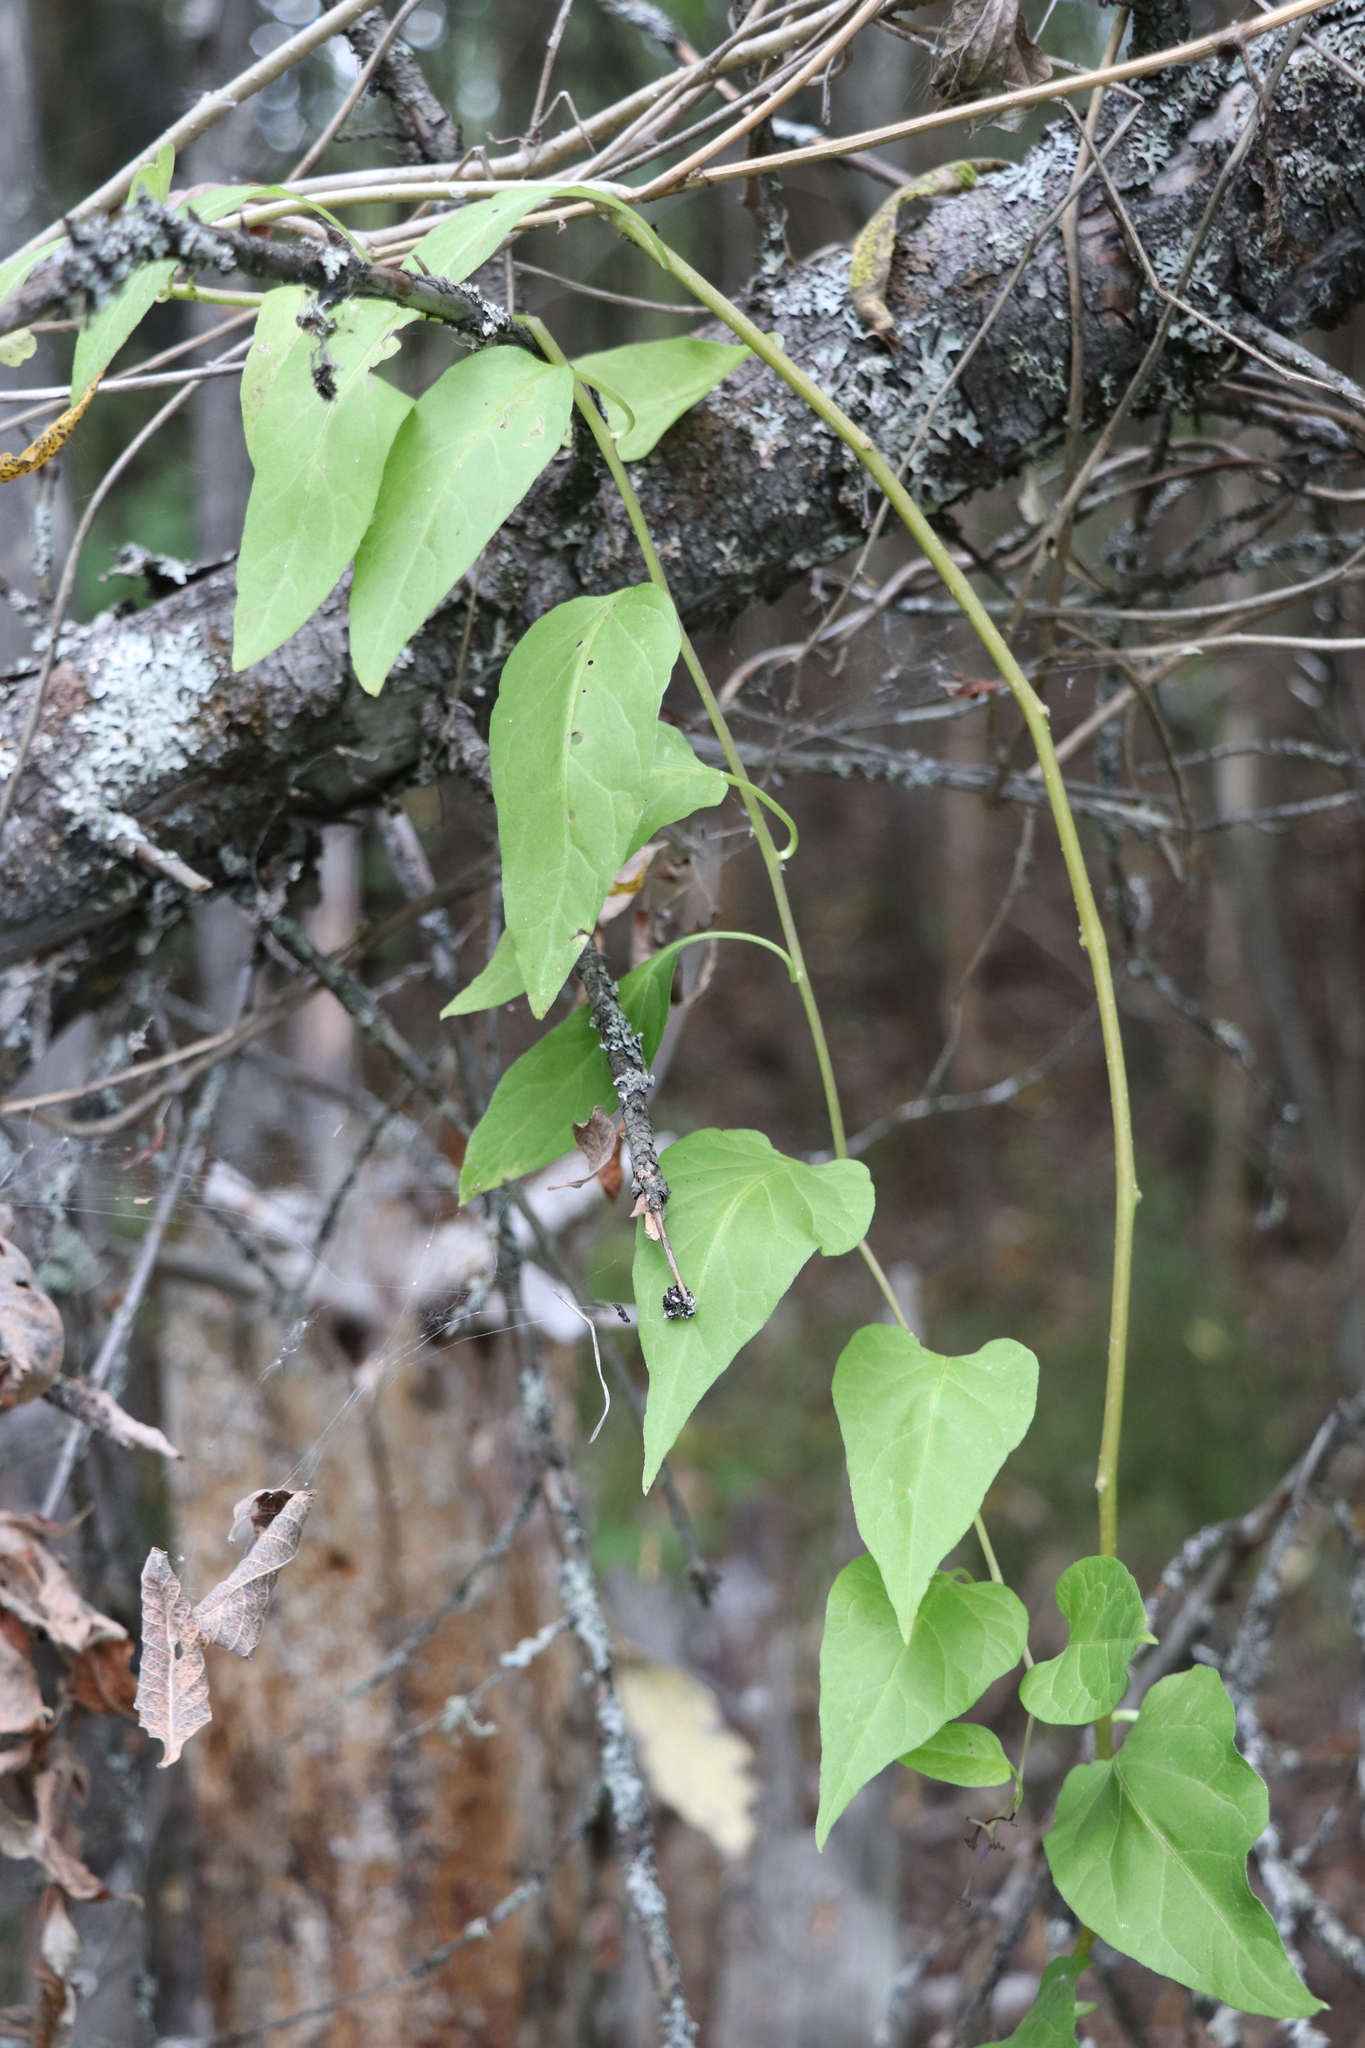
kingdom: Plantae
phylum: Tracheophyta
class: Magnoliopsida
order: Solanales
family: Solanaceae
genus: Solanum
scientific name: Solanum dulcamara
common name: Climbing nightshade
